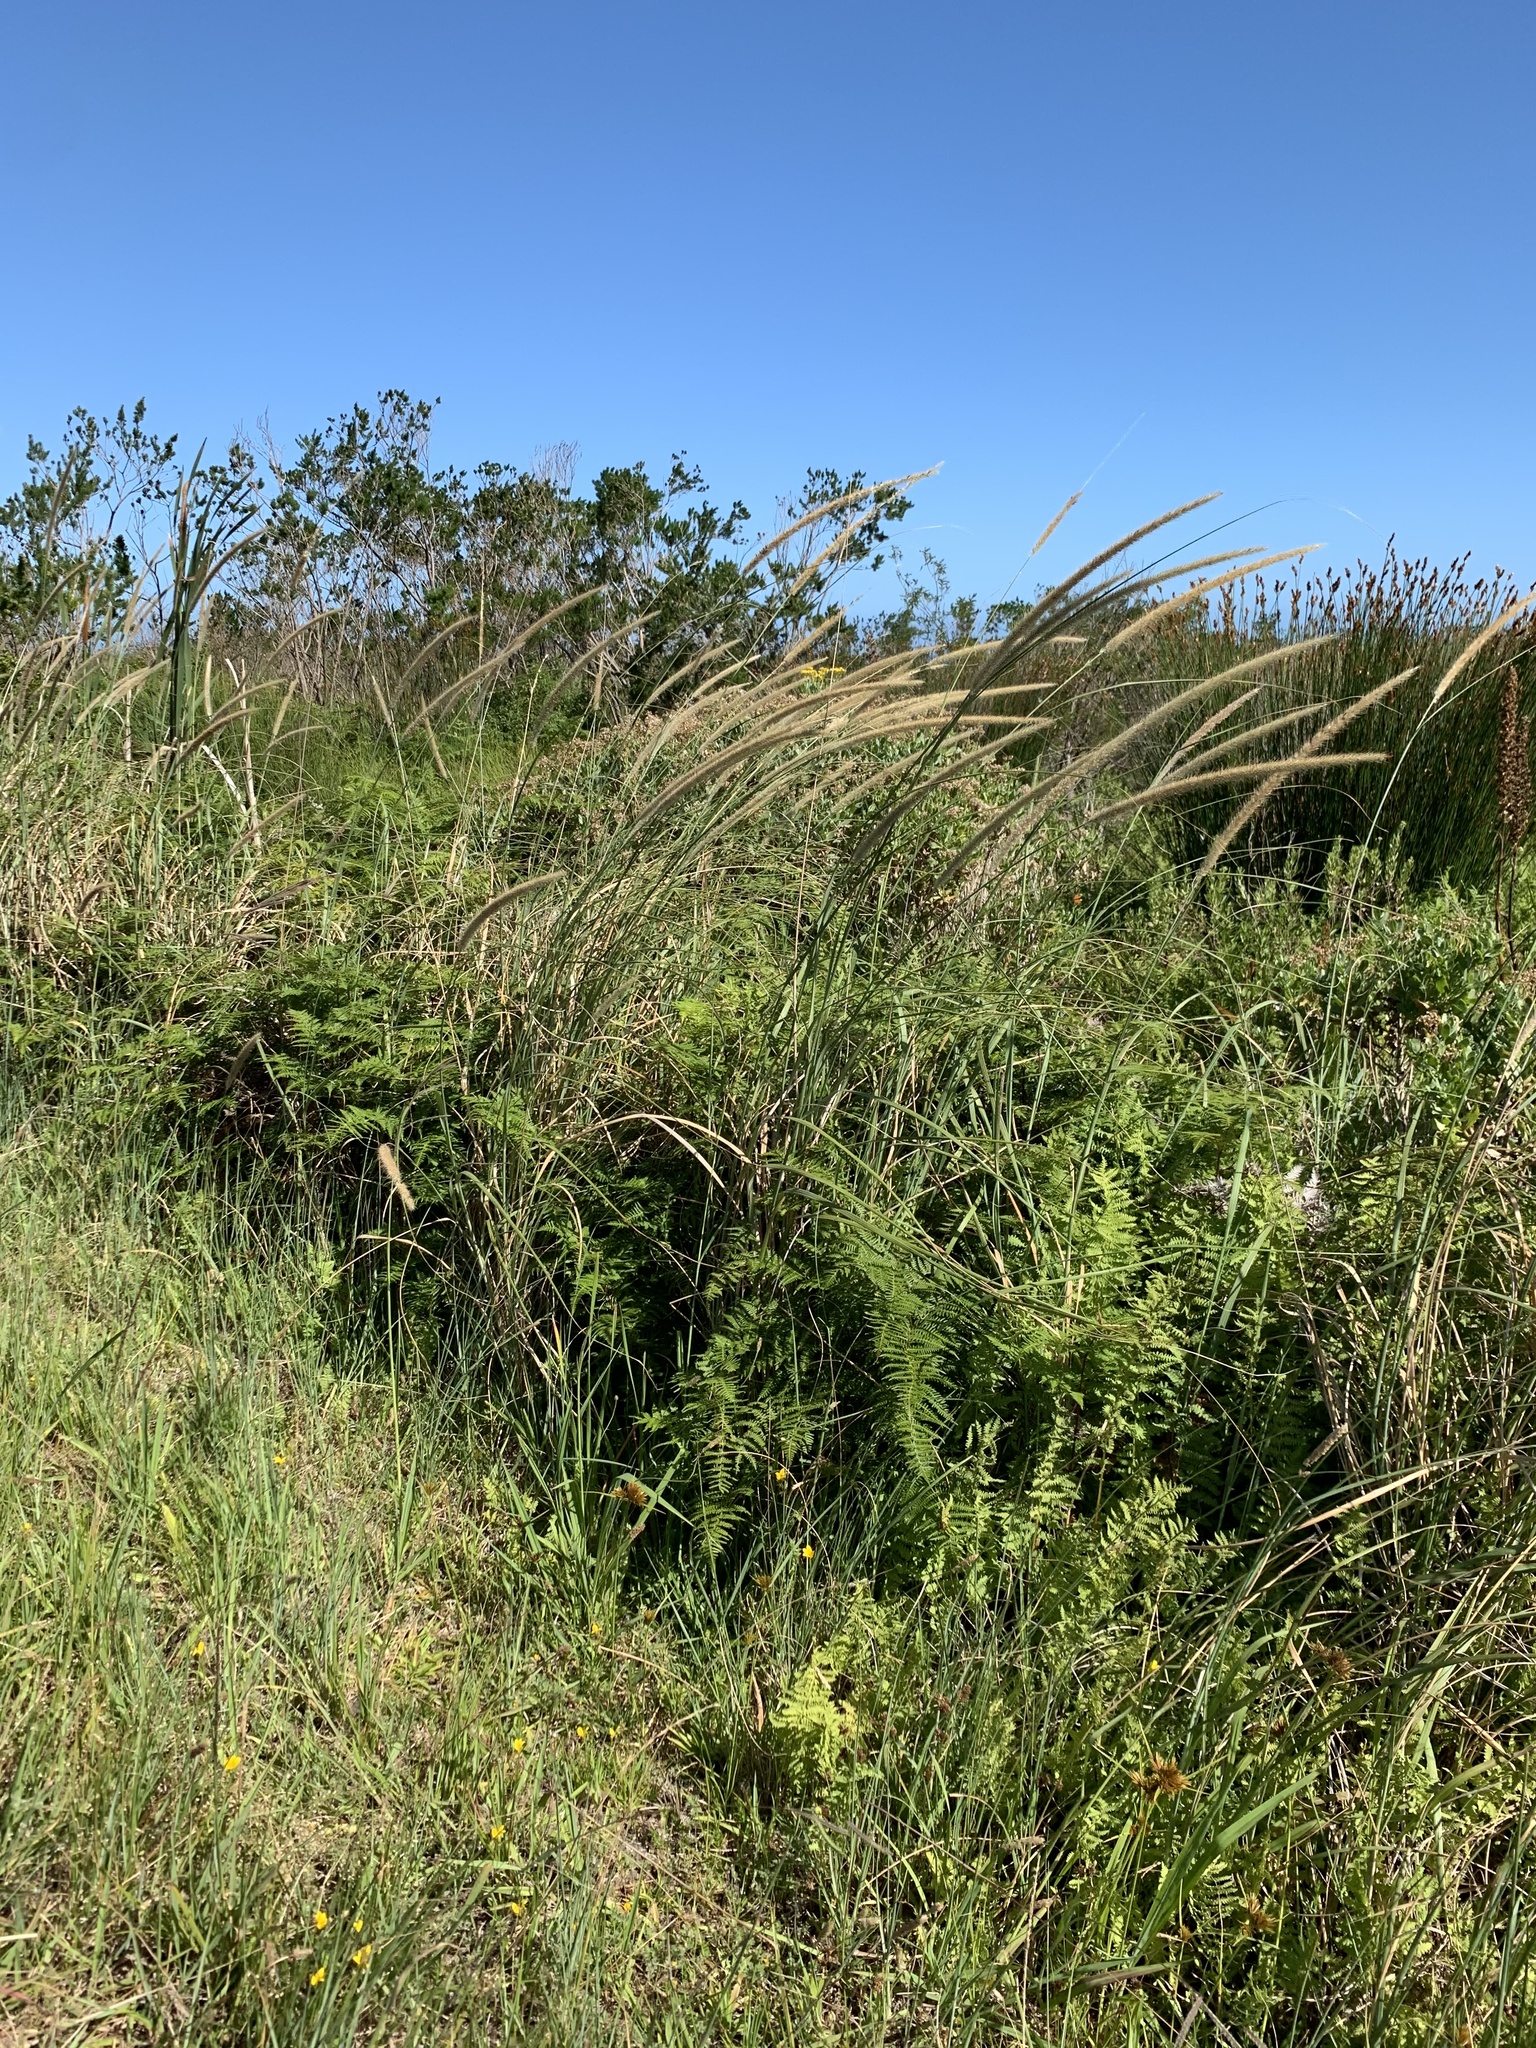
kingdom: Plantae
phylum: Tracheophyta
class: Liliopsida
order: Poales
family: Poaceae
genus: Cenchrus
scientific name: Cenchrus caudatus
